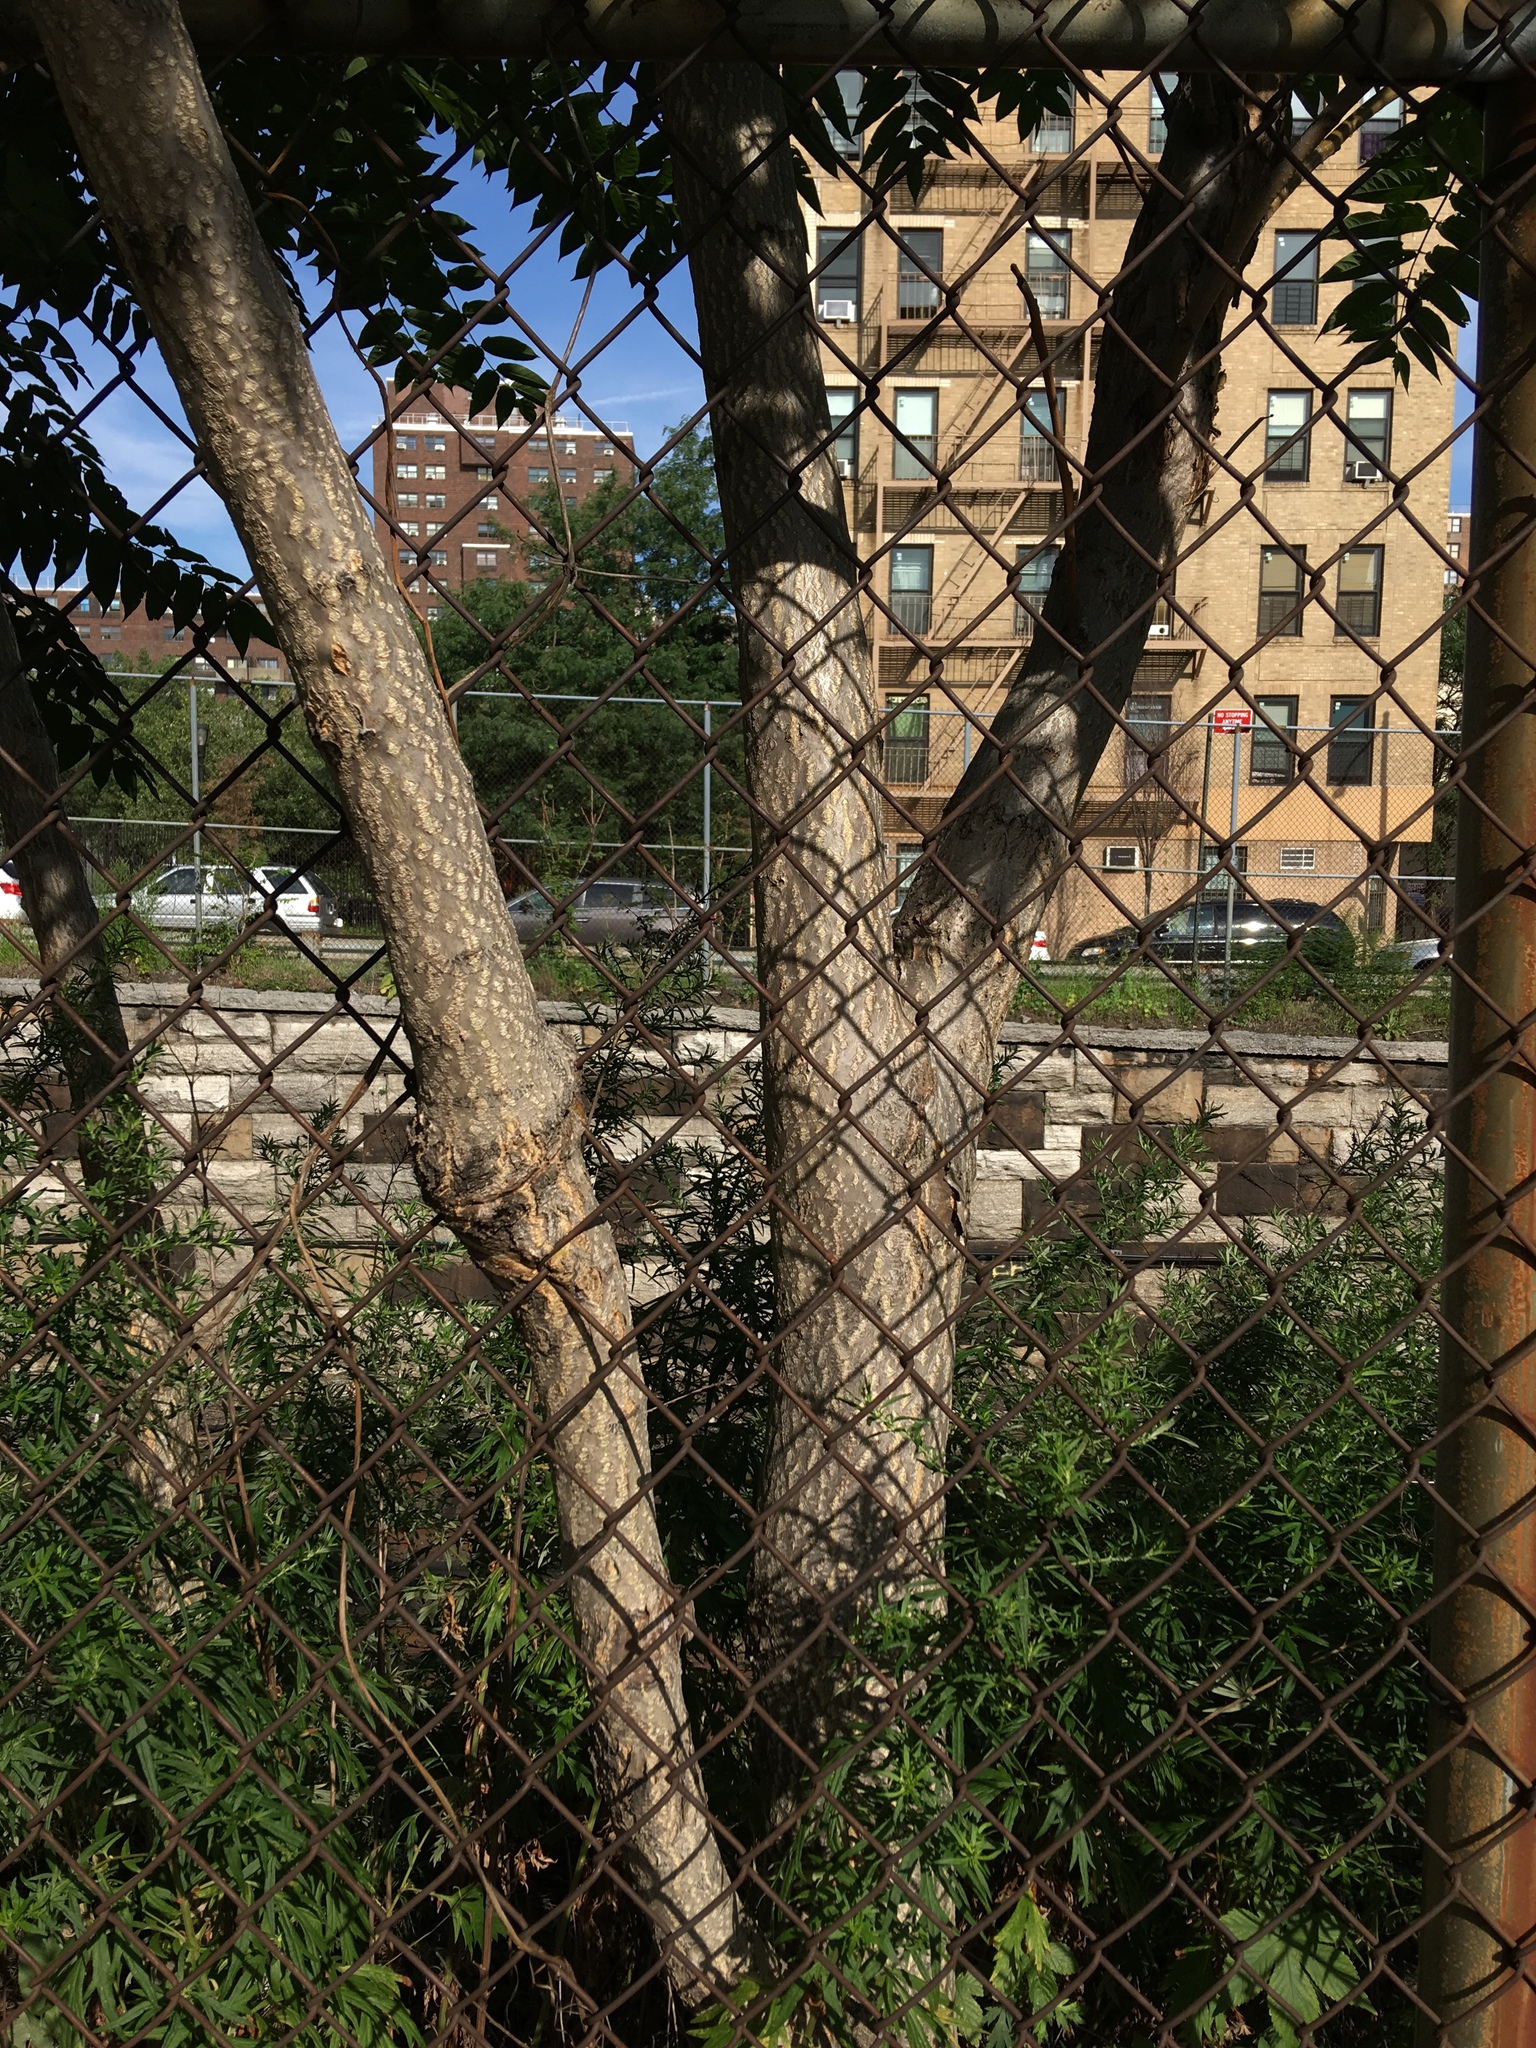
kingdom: Plantae
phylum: Tracheophyta
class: Magnoliopsida
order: Sapindales
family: Simaroubaceae
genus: Ailanthus
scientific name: Ailanthus altissima
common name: Tree-of-heaven
